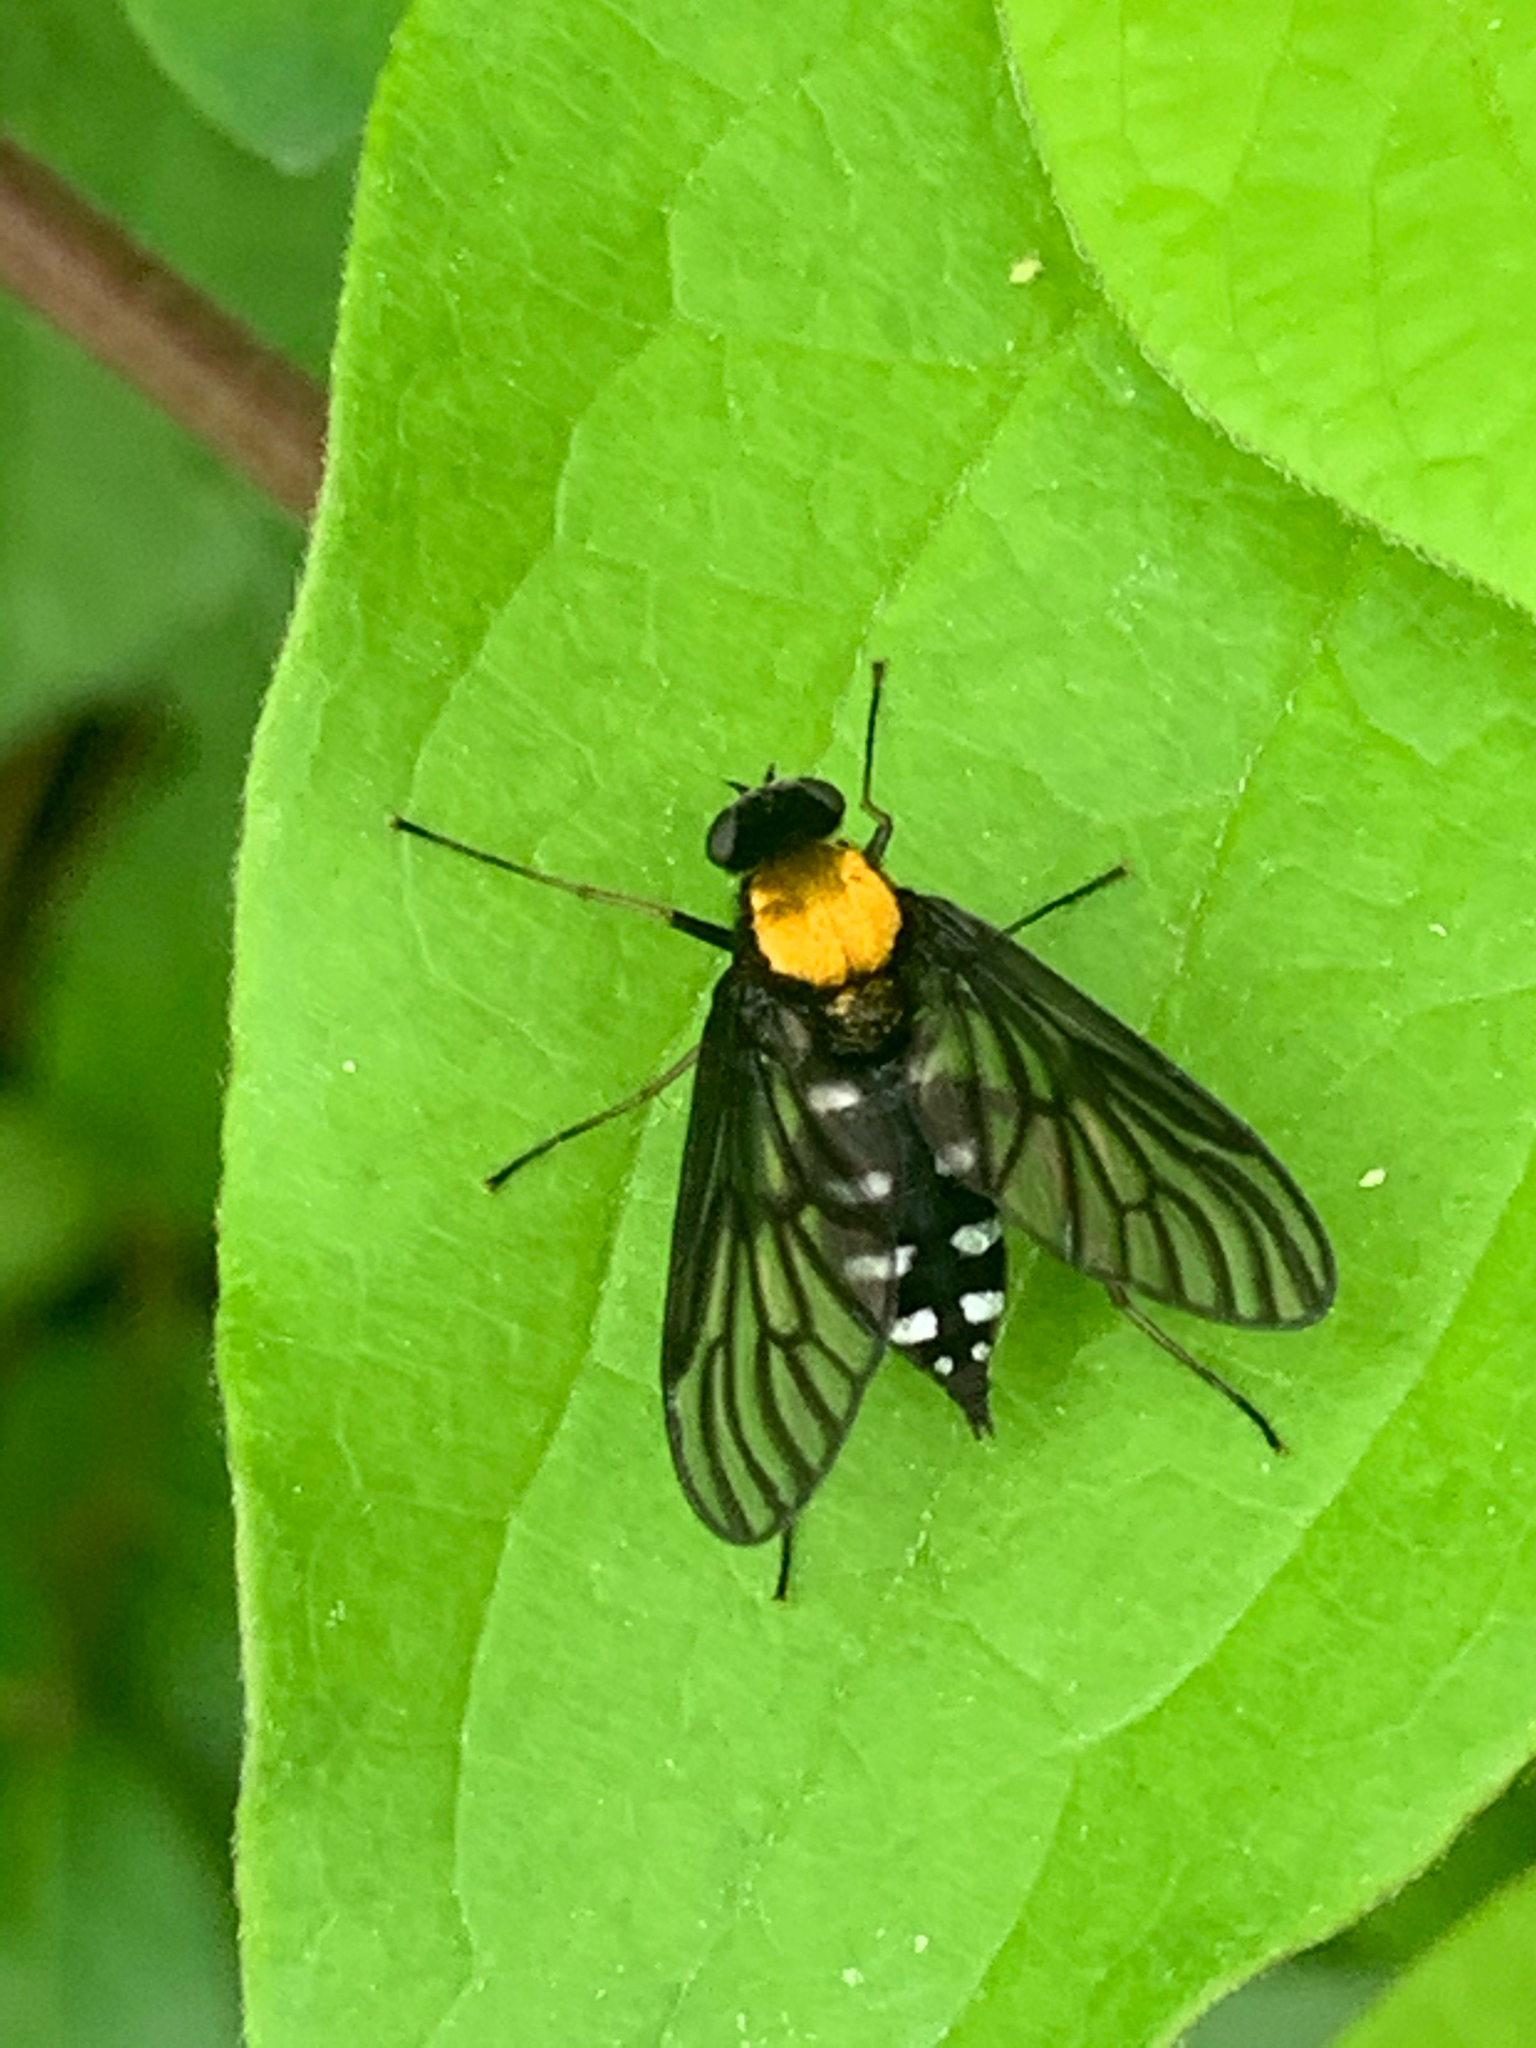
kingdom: Animalia
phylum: Arthropoda
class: Insecta
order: Diptera
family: Rhagionidae
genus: Chrysopilus
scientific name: Chrysopilus thoracicus
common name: Golden-backed snipe fly
